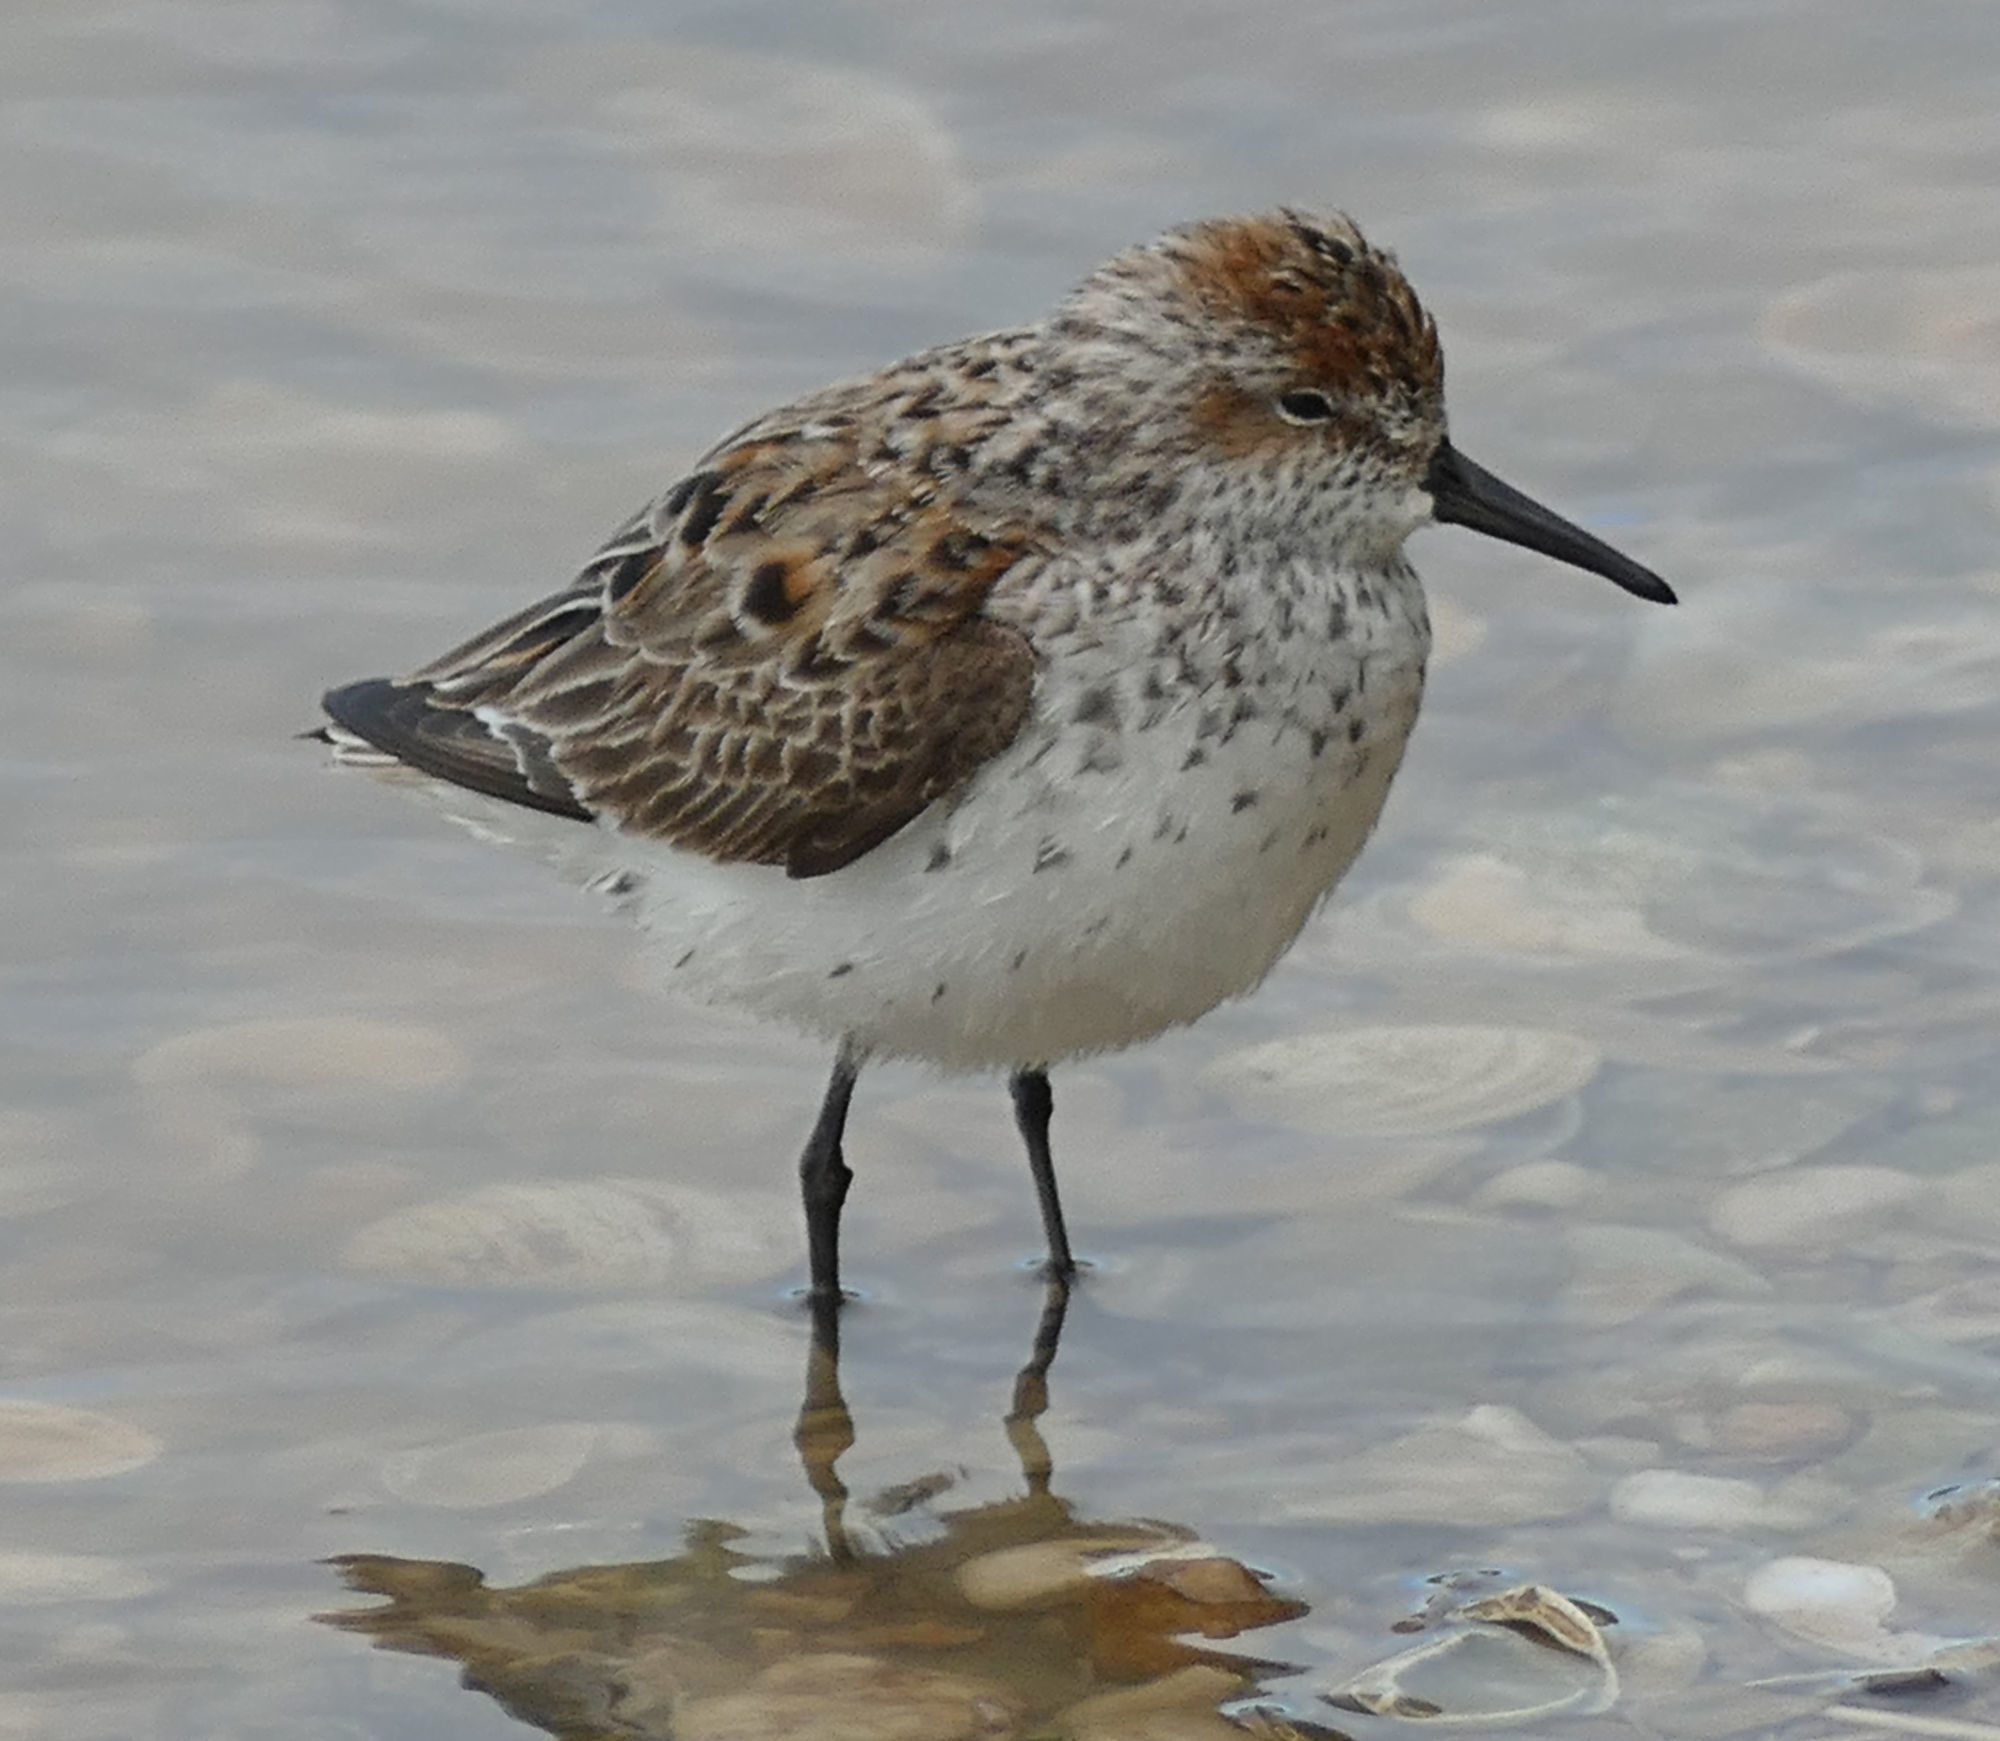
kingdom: Animalia
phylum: Chordata
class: Aves
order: Charadriiformes
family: Scolopacidae
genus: Calidris
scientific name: Calidris mauri
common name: Western sandpiper
